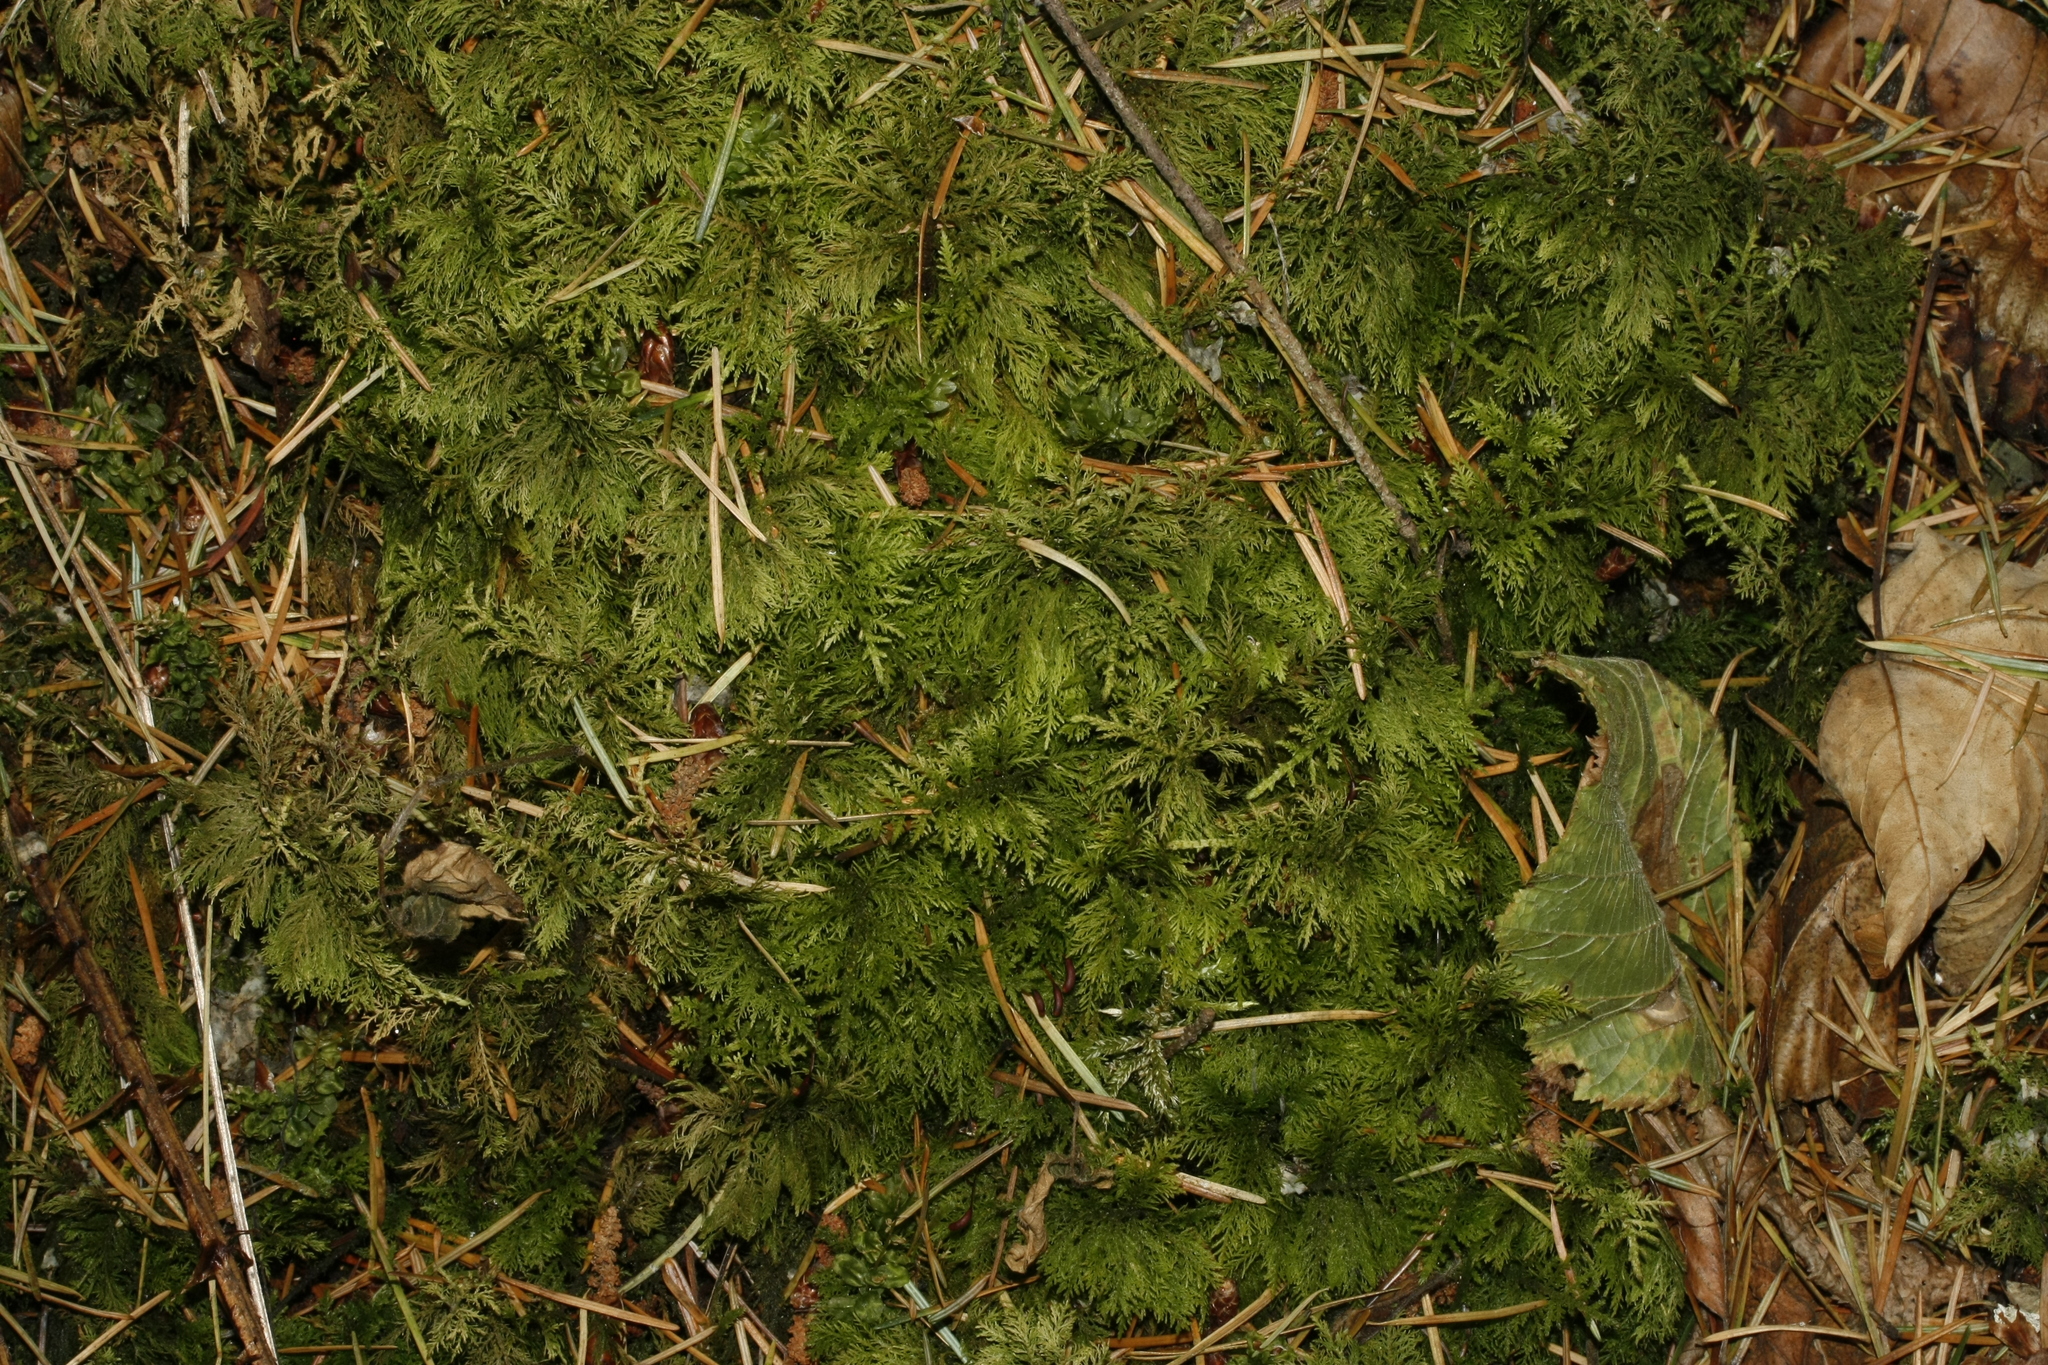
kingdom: Plantae
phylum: Bryophyta
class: Bryopsida
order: Hypnales
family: Thuidiaceae
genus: Thuidium
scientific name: Thuidium tamariscinum
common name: Common tamarisk-moss
